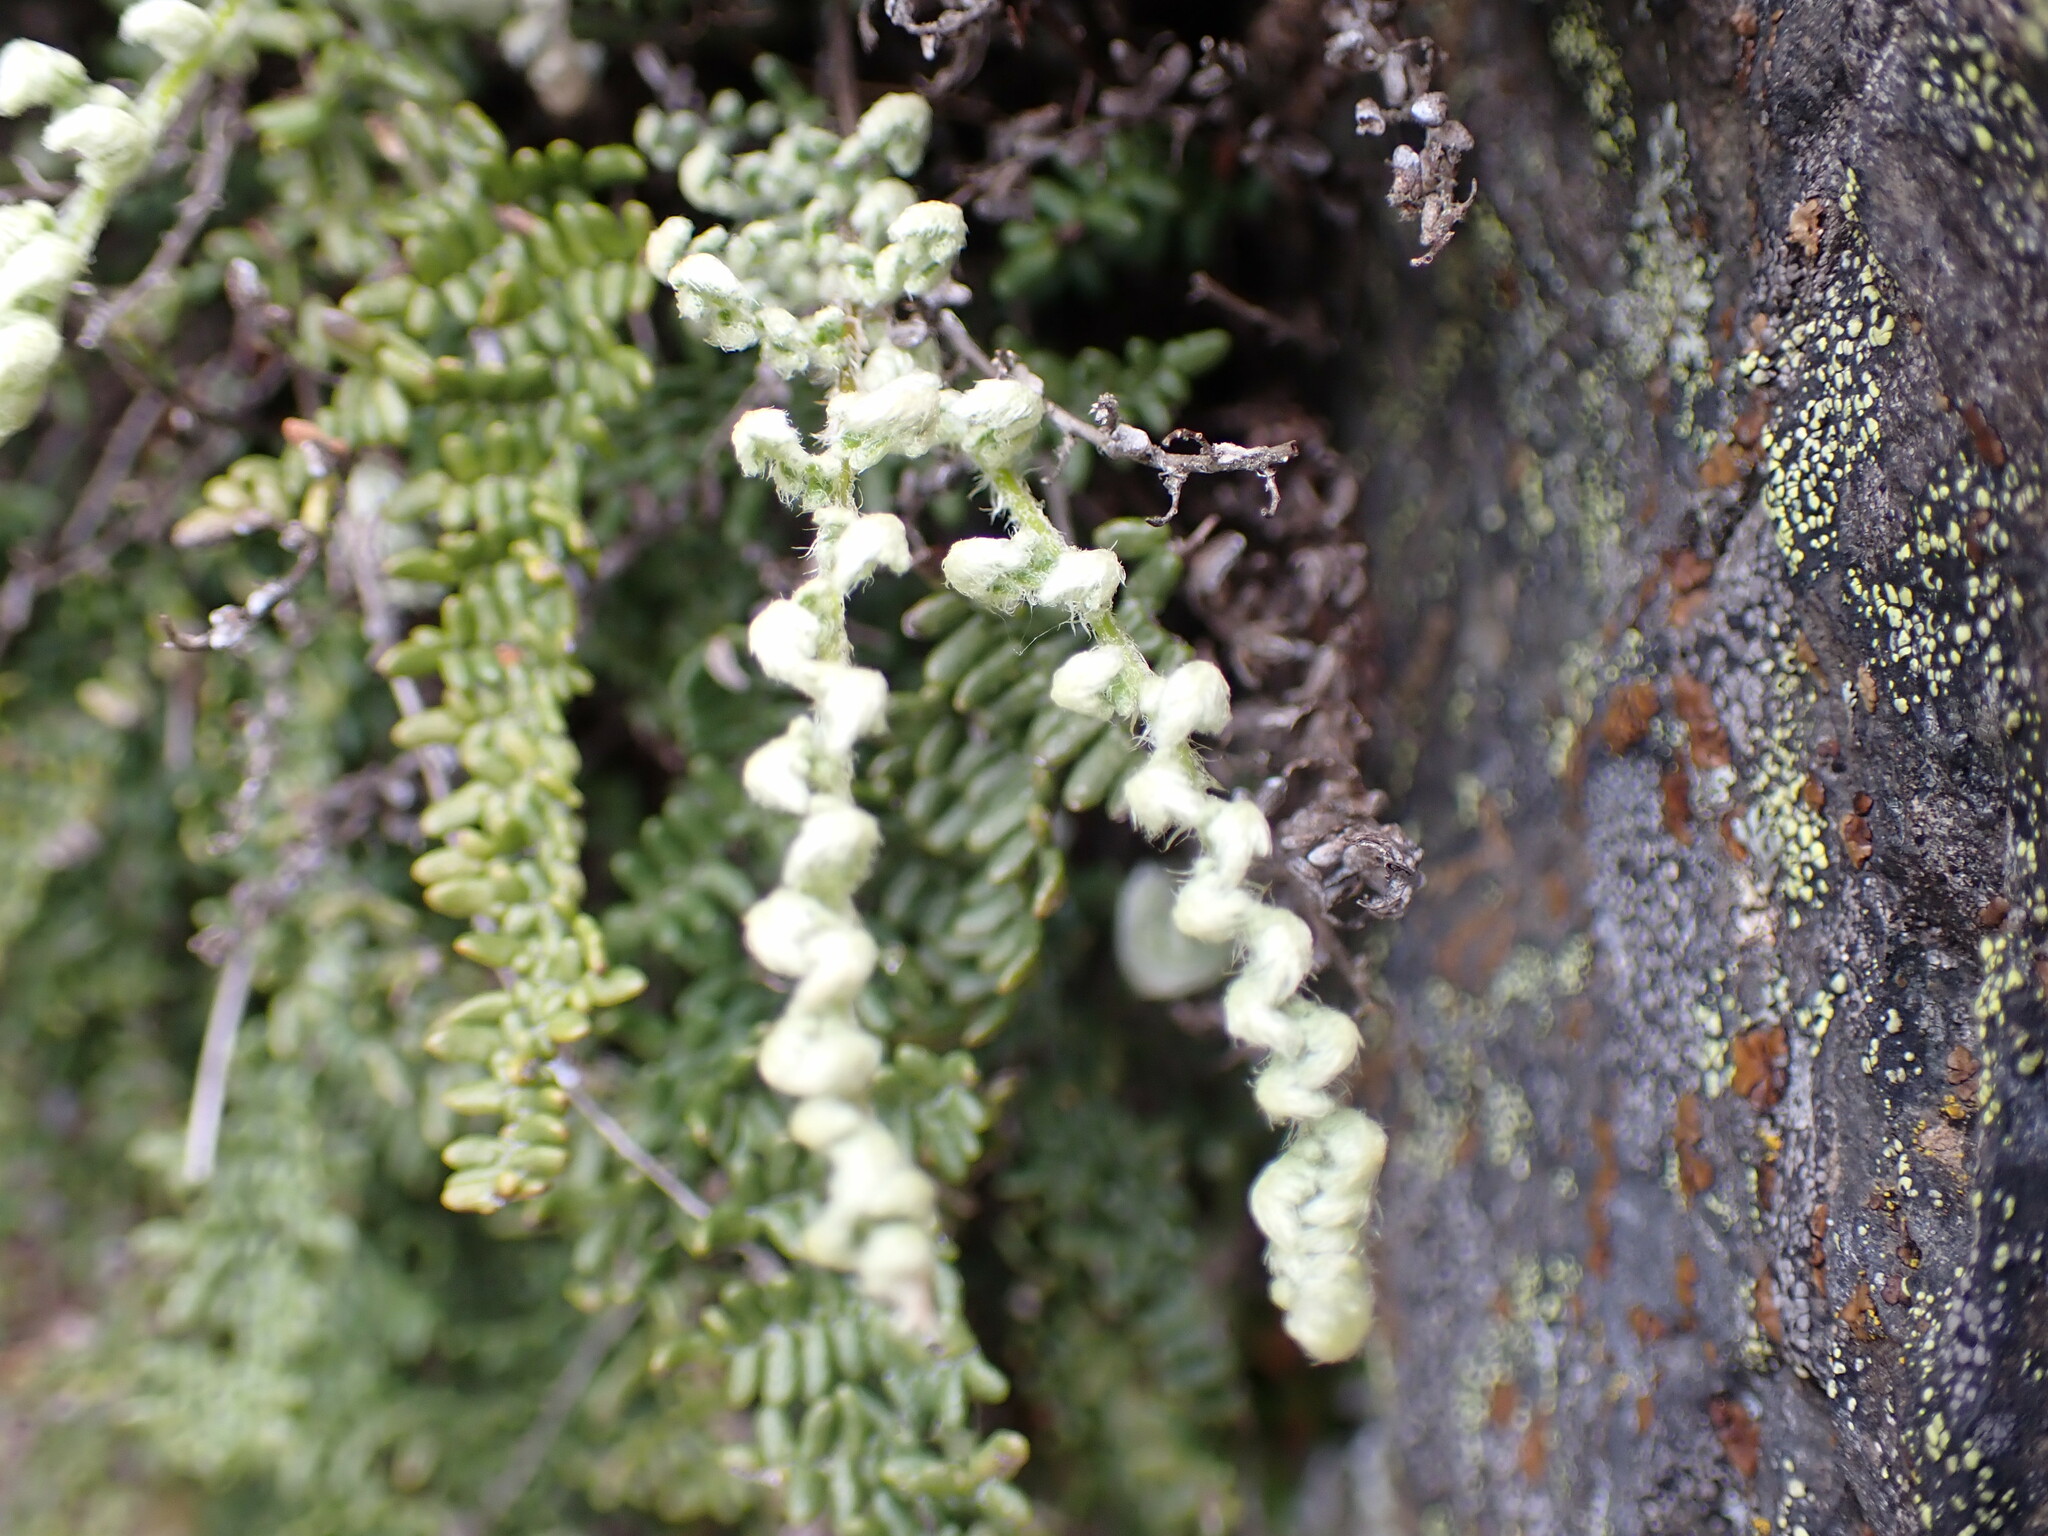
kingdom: Plantae
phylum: Tracheophyta
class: Polypodiopsida
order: Polypodiales
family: Pteridaceae
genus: Myriopteris
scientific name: Myriopteris gracillima
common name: Lace fern
